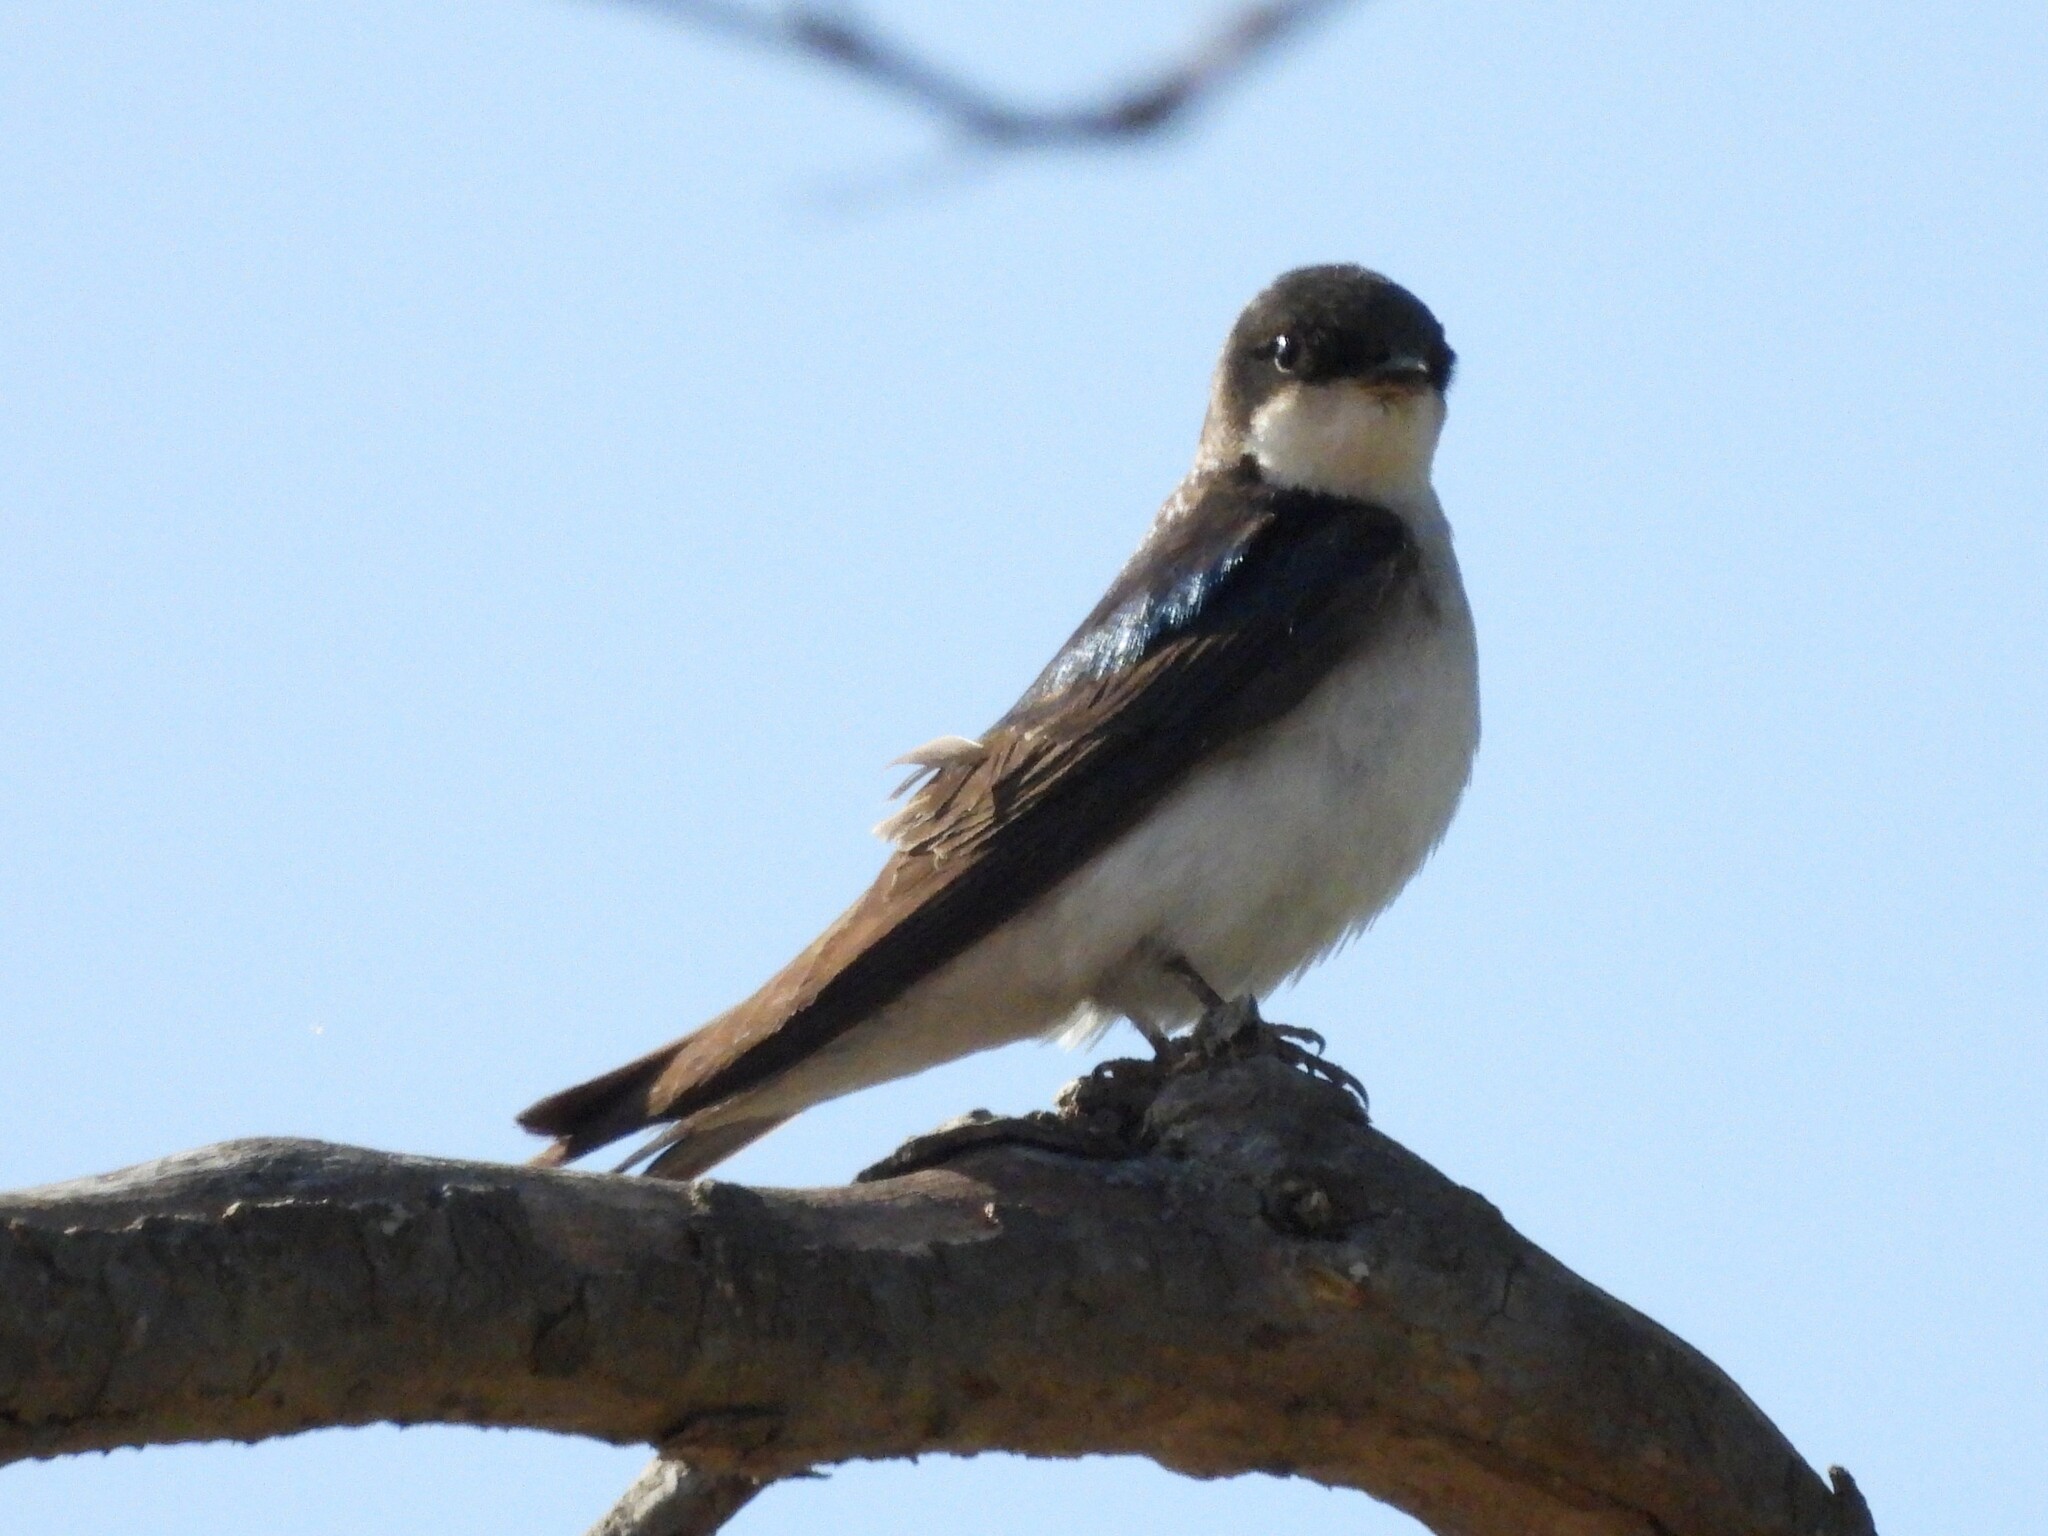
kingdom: Animalia
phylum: Chordata
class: Aves
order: Passeriformes
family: Hirundinidae
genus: Tachycineta
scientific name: Tachycineta bicolor
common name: Tree swallow
